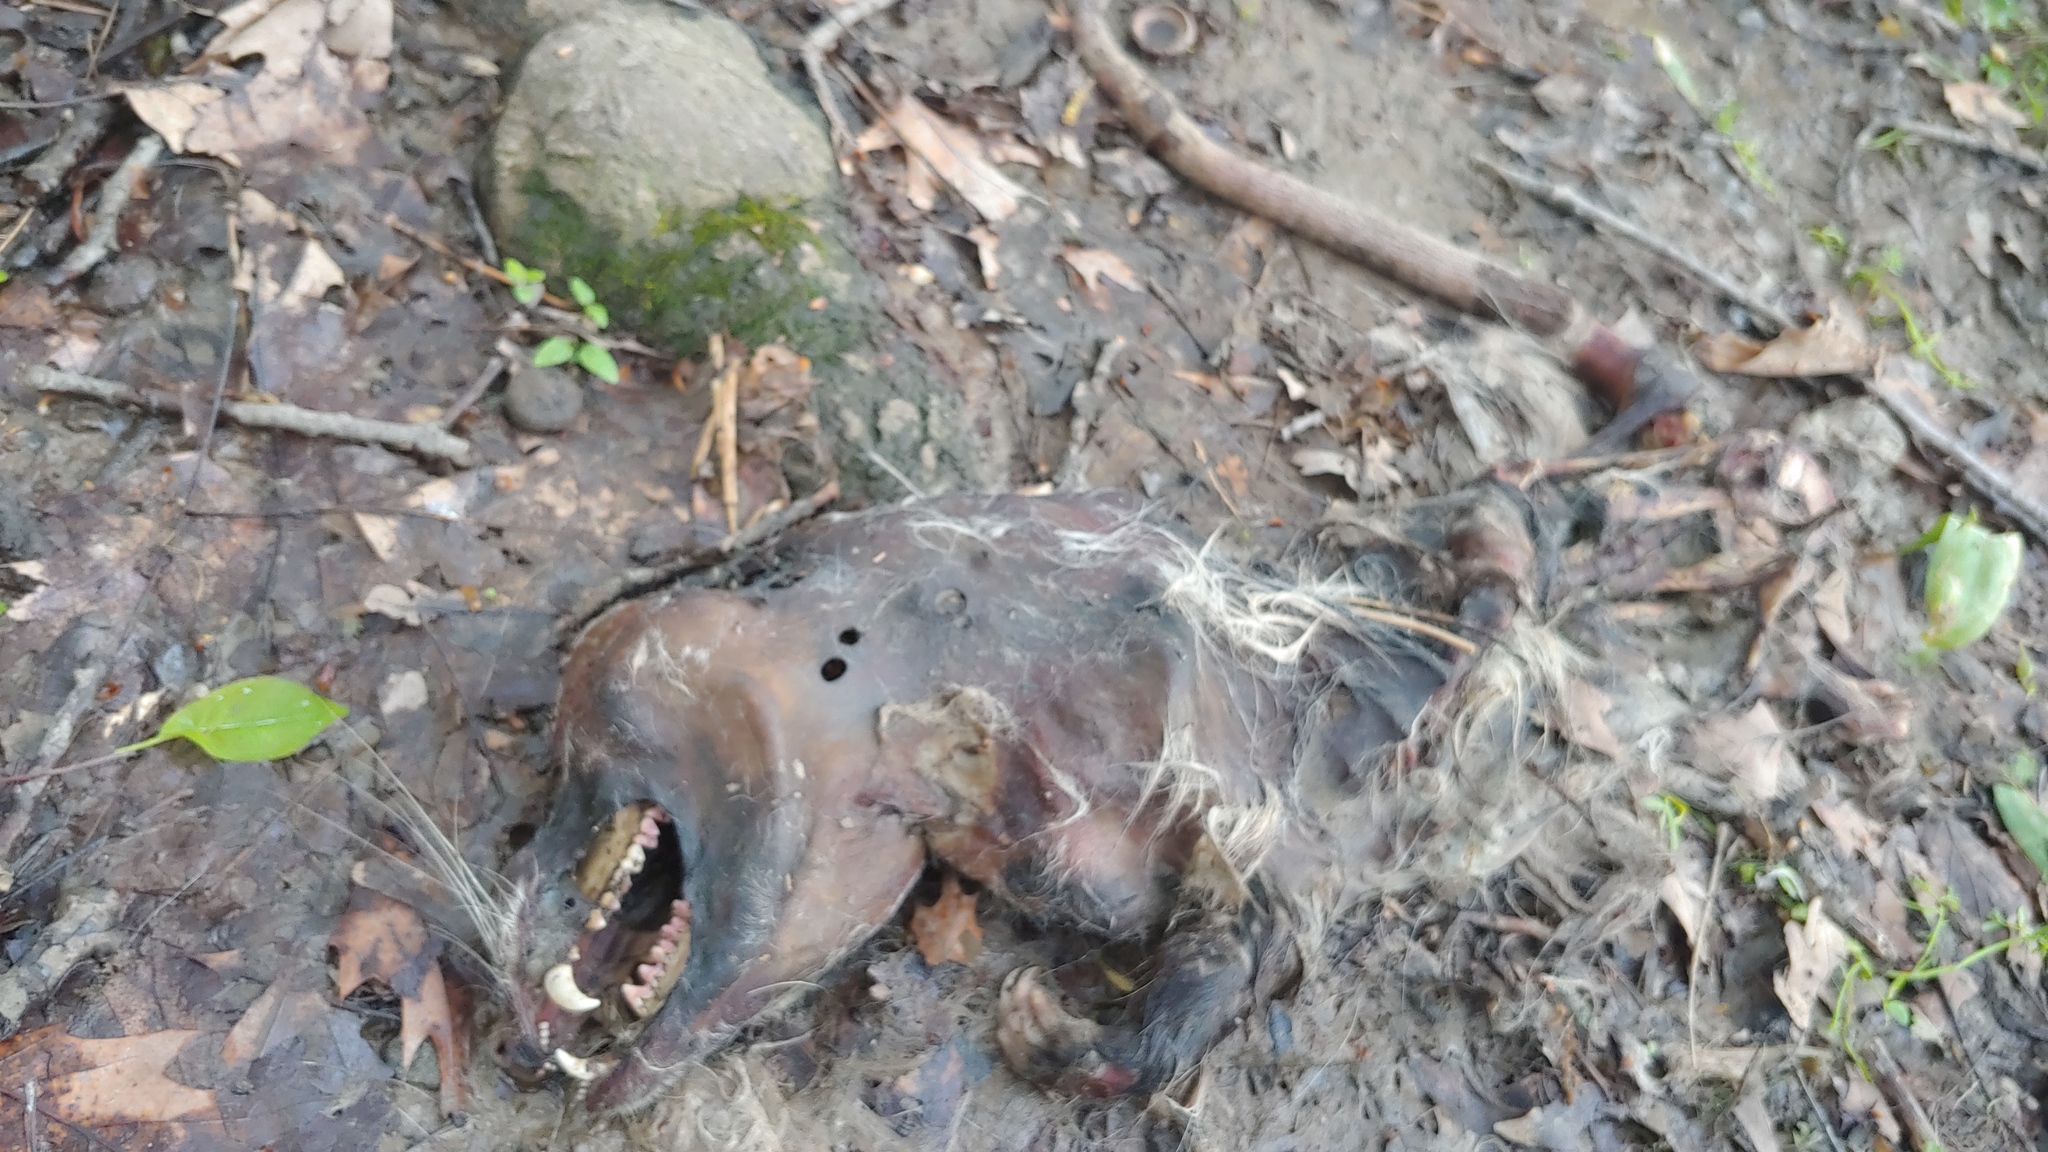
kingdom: Animalia
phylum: Chordata
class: Mammalia
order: Didelphimorphia
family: Didelphidae
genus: Didelphis
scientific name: Didelphis virginiana
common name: Virginia opossum
